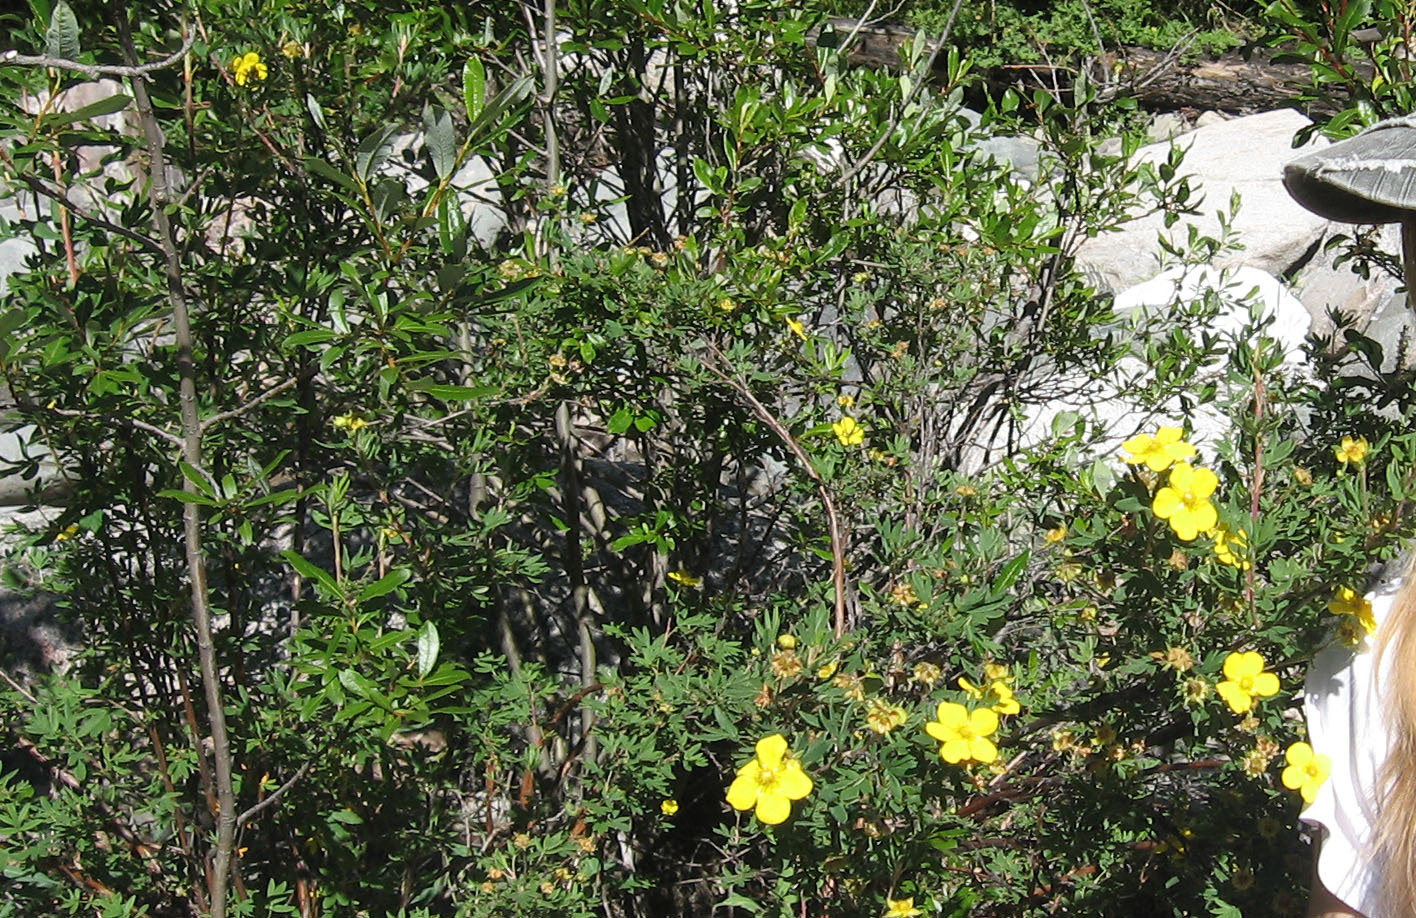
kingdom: Plantae
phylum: Tracheophyta
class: Magnoliopsida
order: Rosales
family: Rosaceae
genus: Dasiphora
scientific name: Dasiphora fruticosa
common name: Shrubby cinquefoil
